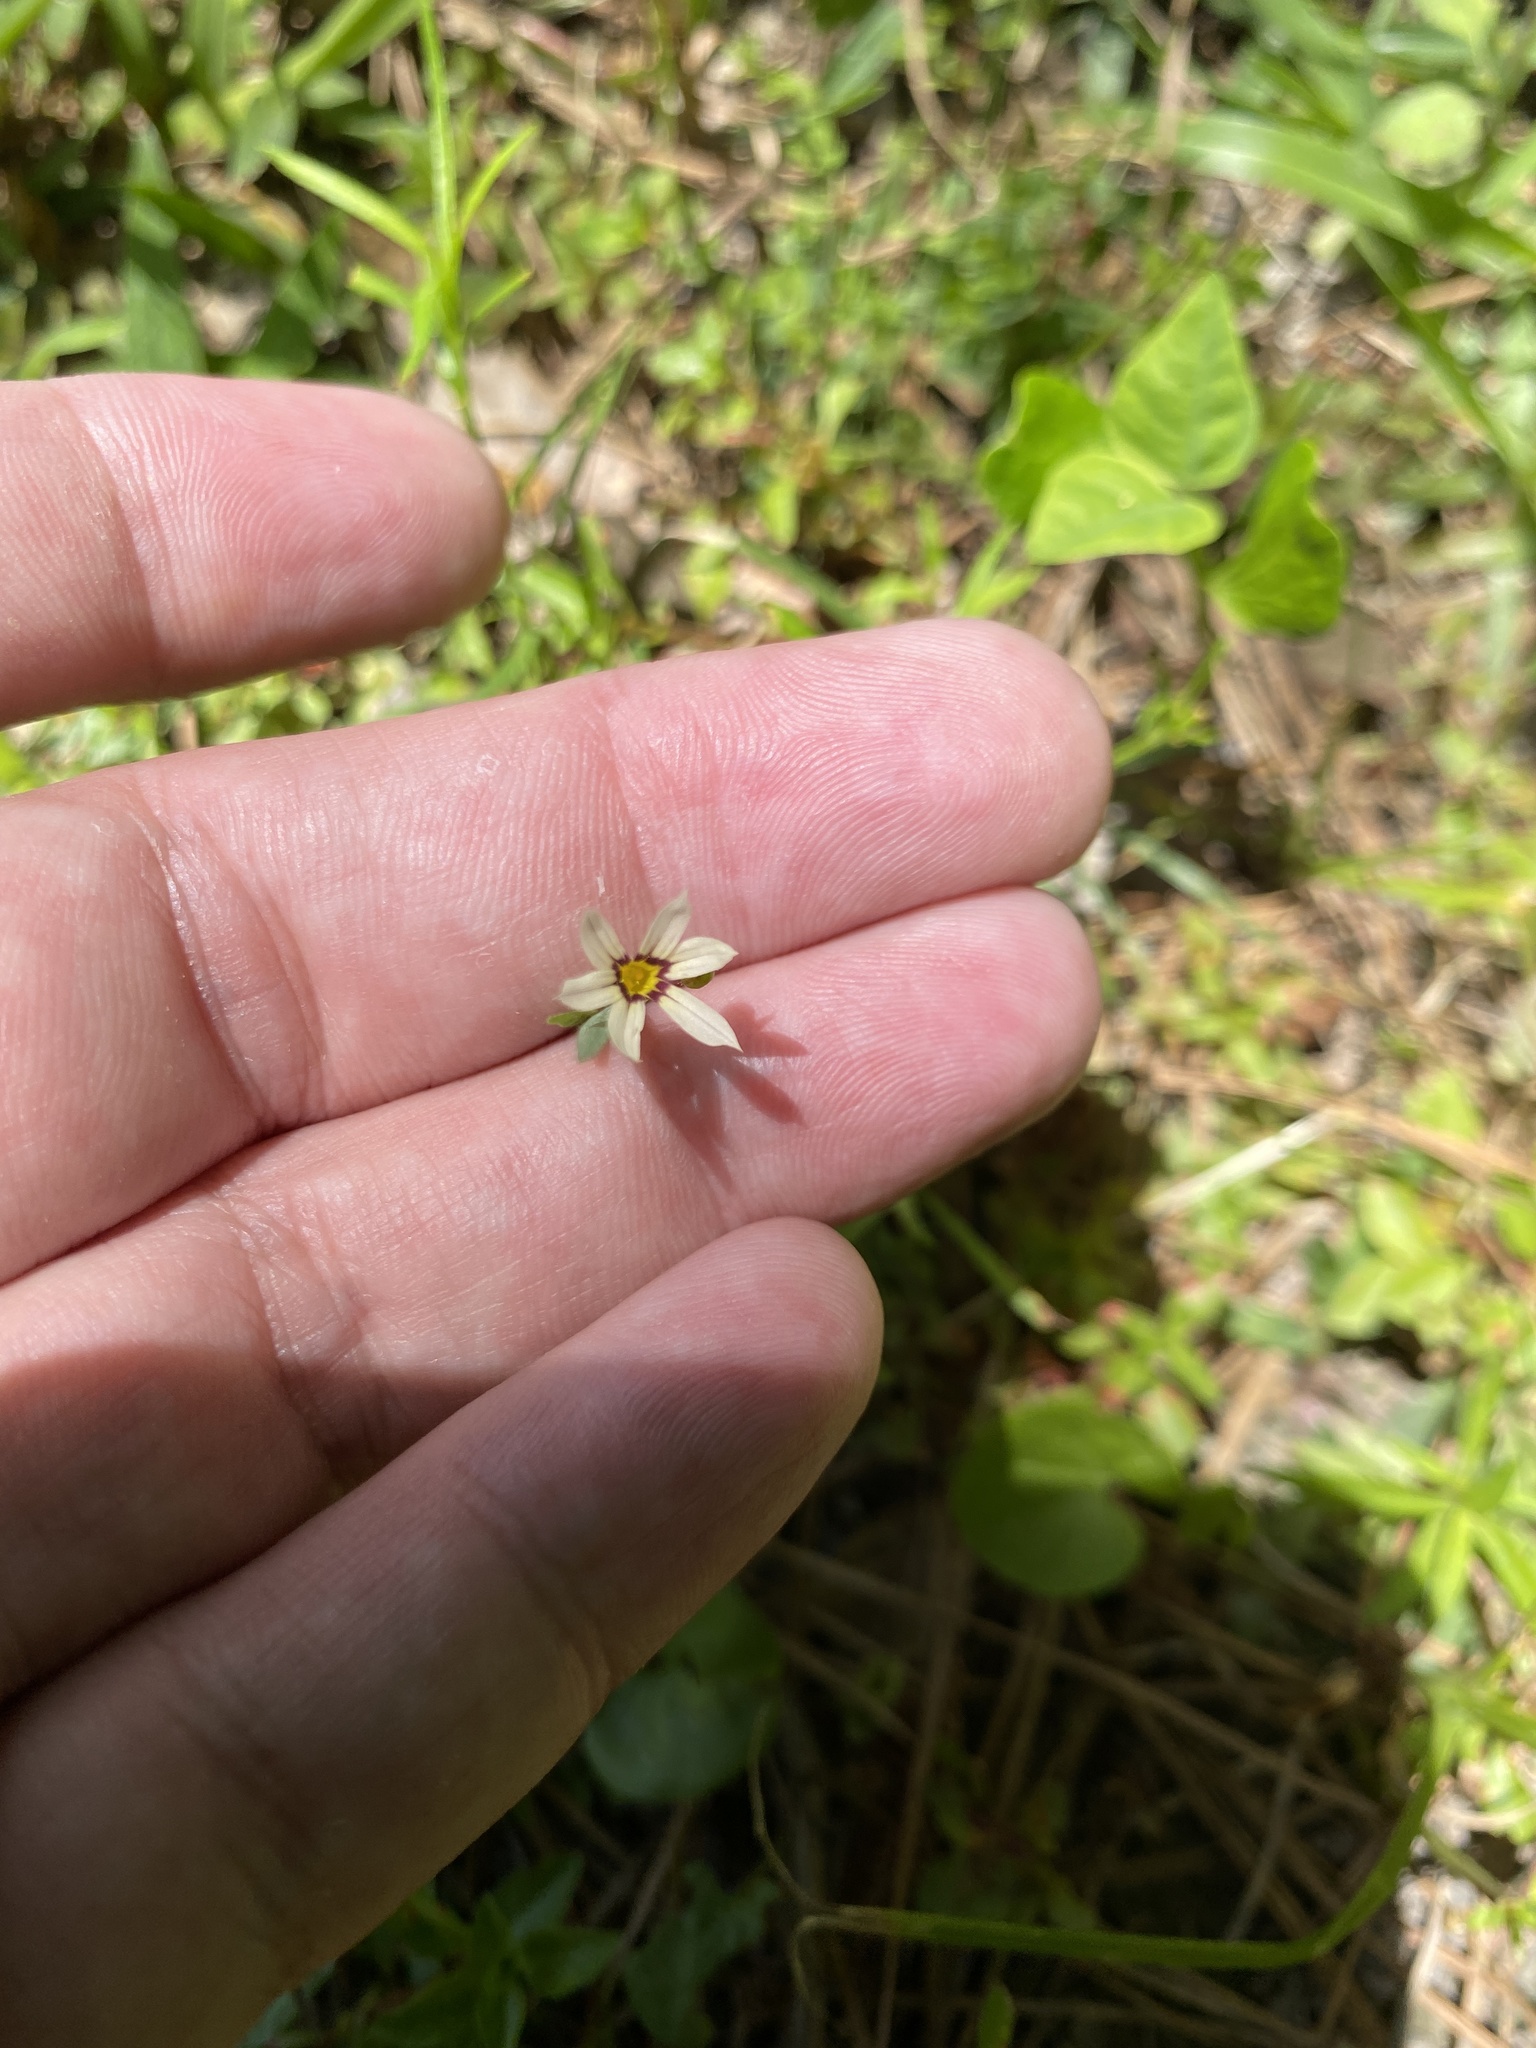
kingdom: Plantae
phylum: Tracheophyta
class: Liliopsida
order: Asparagales
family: Iridaceae
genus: Sisyrinchium
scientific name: Sisyrinchium micranthum
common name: Bermuda pigroot
